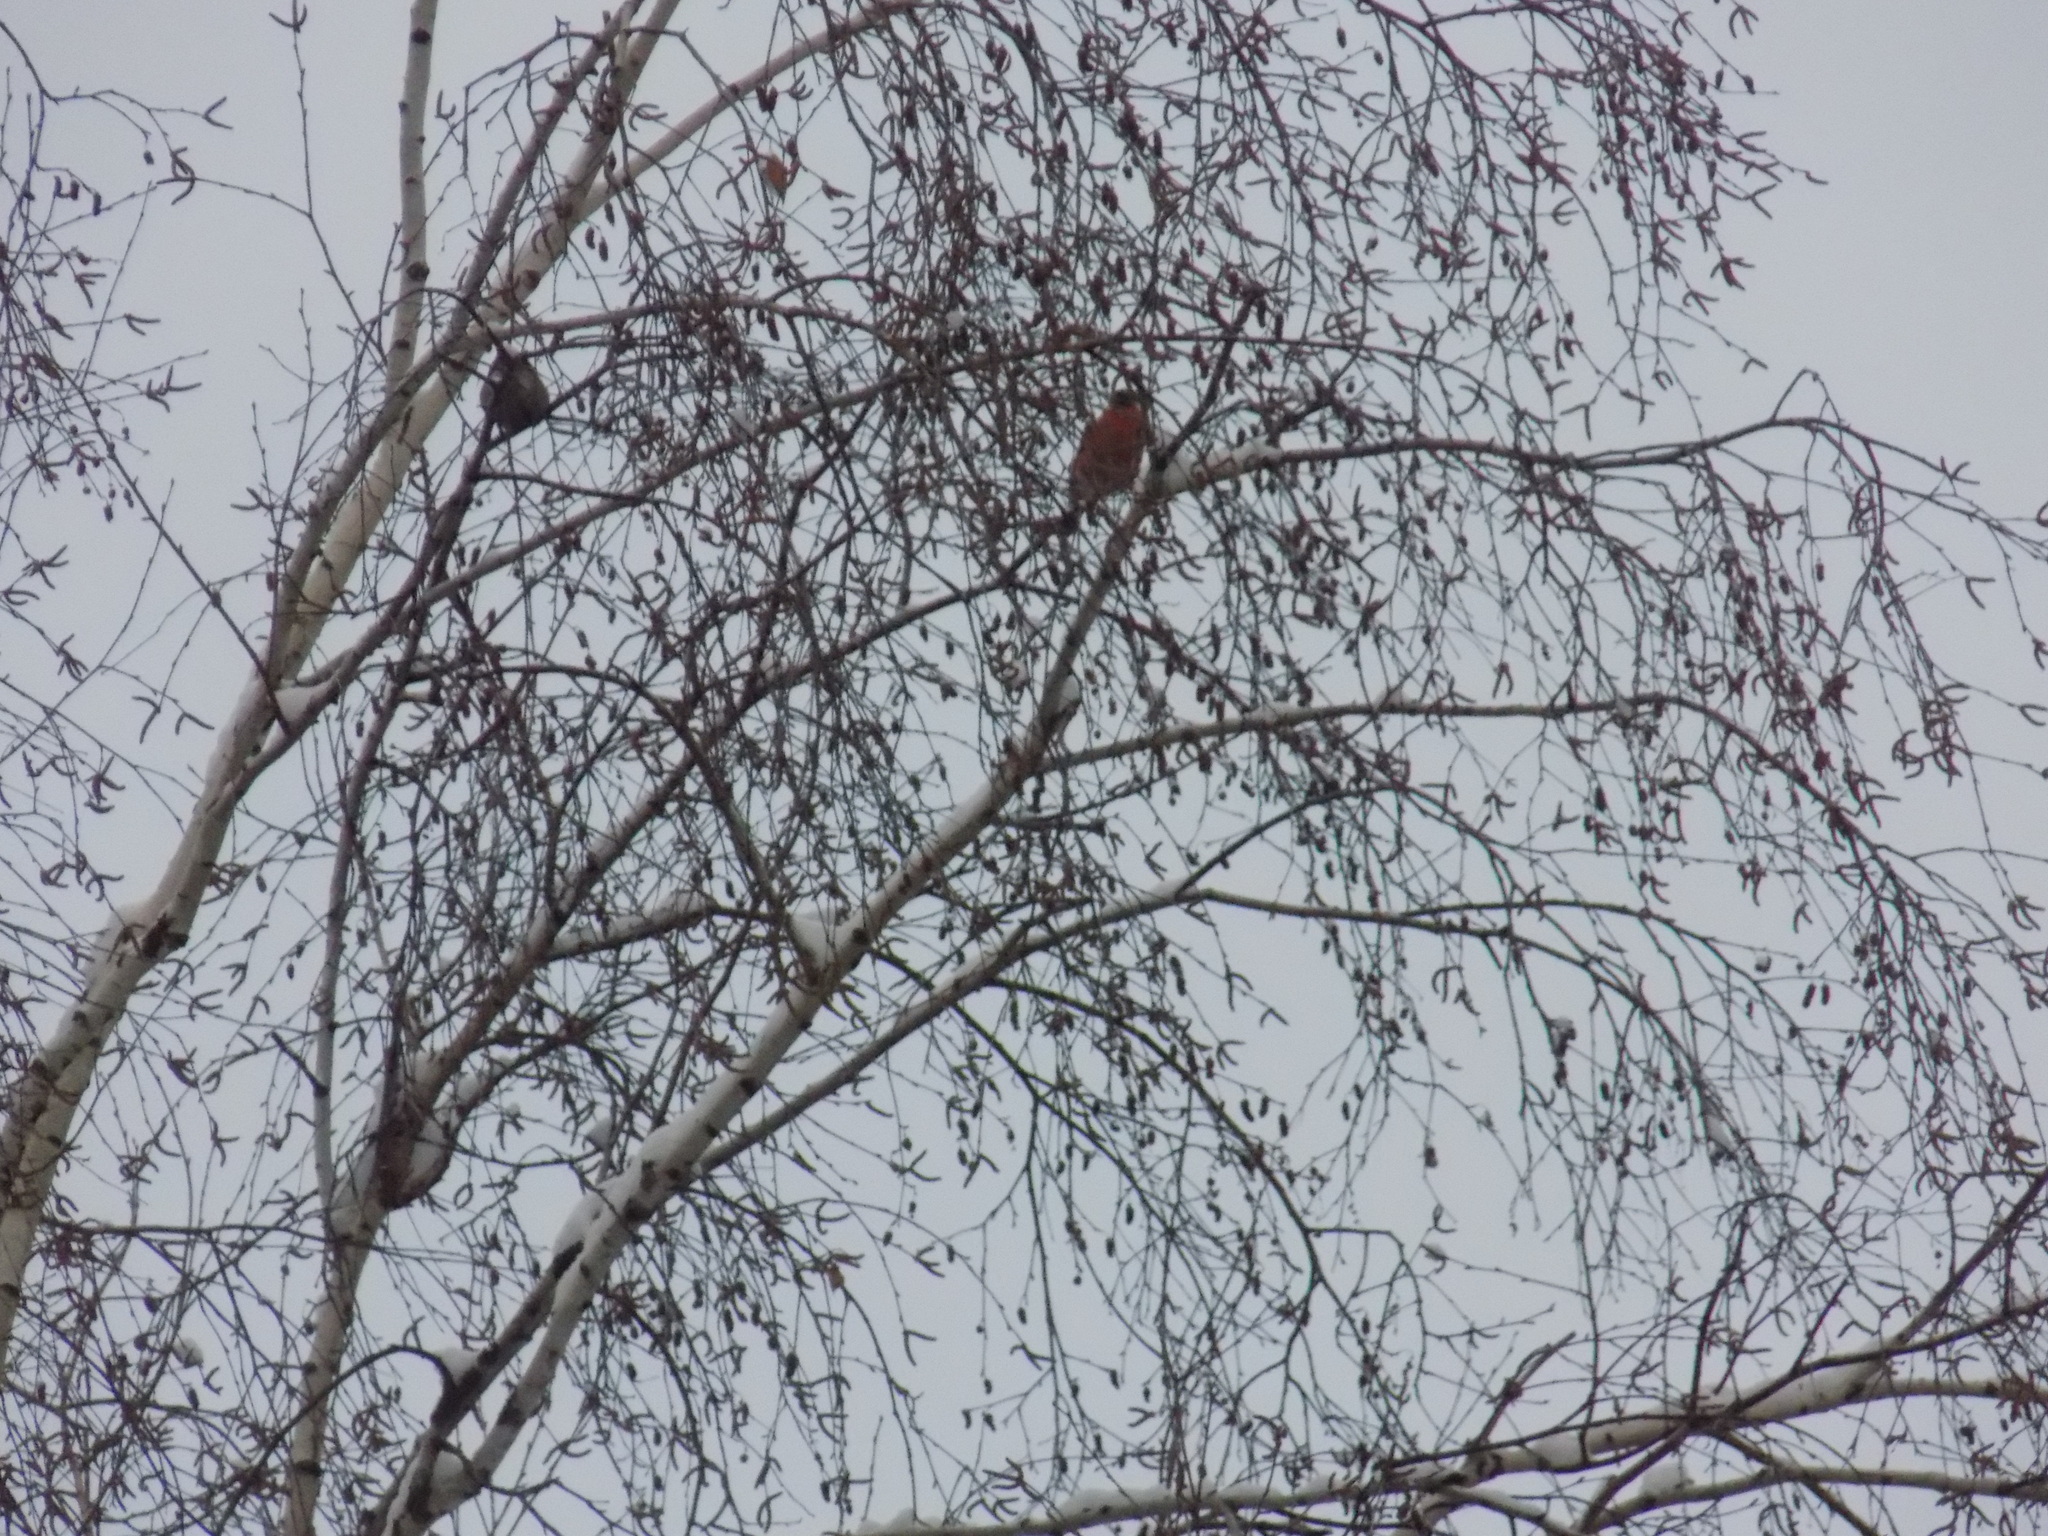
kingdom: Animalia
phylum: Chordata
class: Aves
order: Passeriformes
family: Fringillidae
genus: Pyrrhula
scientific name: Pyrrhula pyrrhula
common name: Eurasian bullfinch
